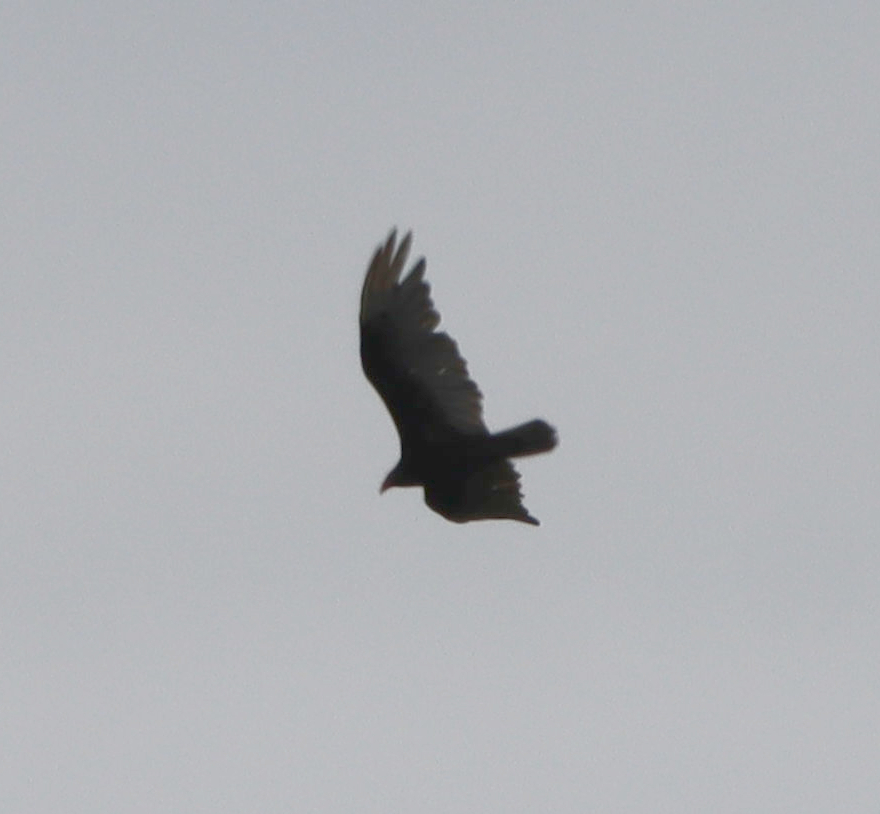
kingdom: Animalia
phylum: Chordata
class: Aves
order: Accipitriformes
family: Cathartidae
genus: Cathartes
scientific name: Cathartes aura
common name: Turkey vulture
